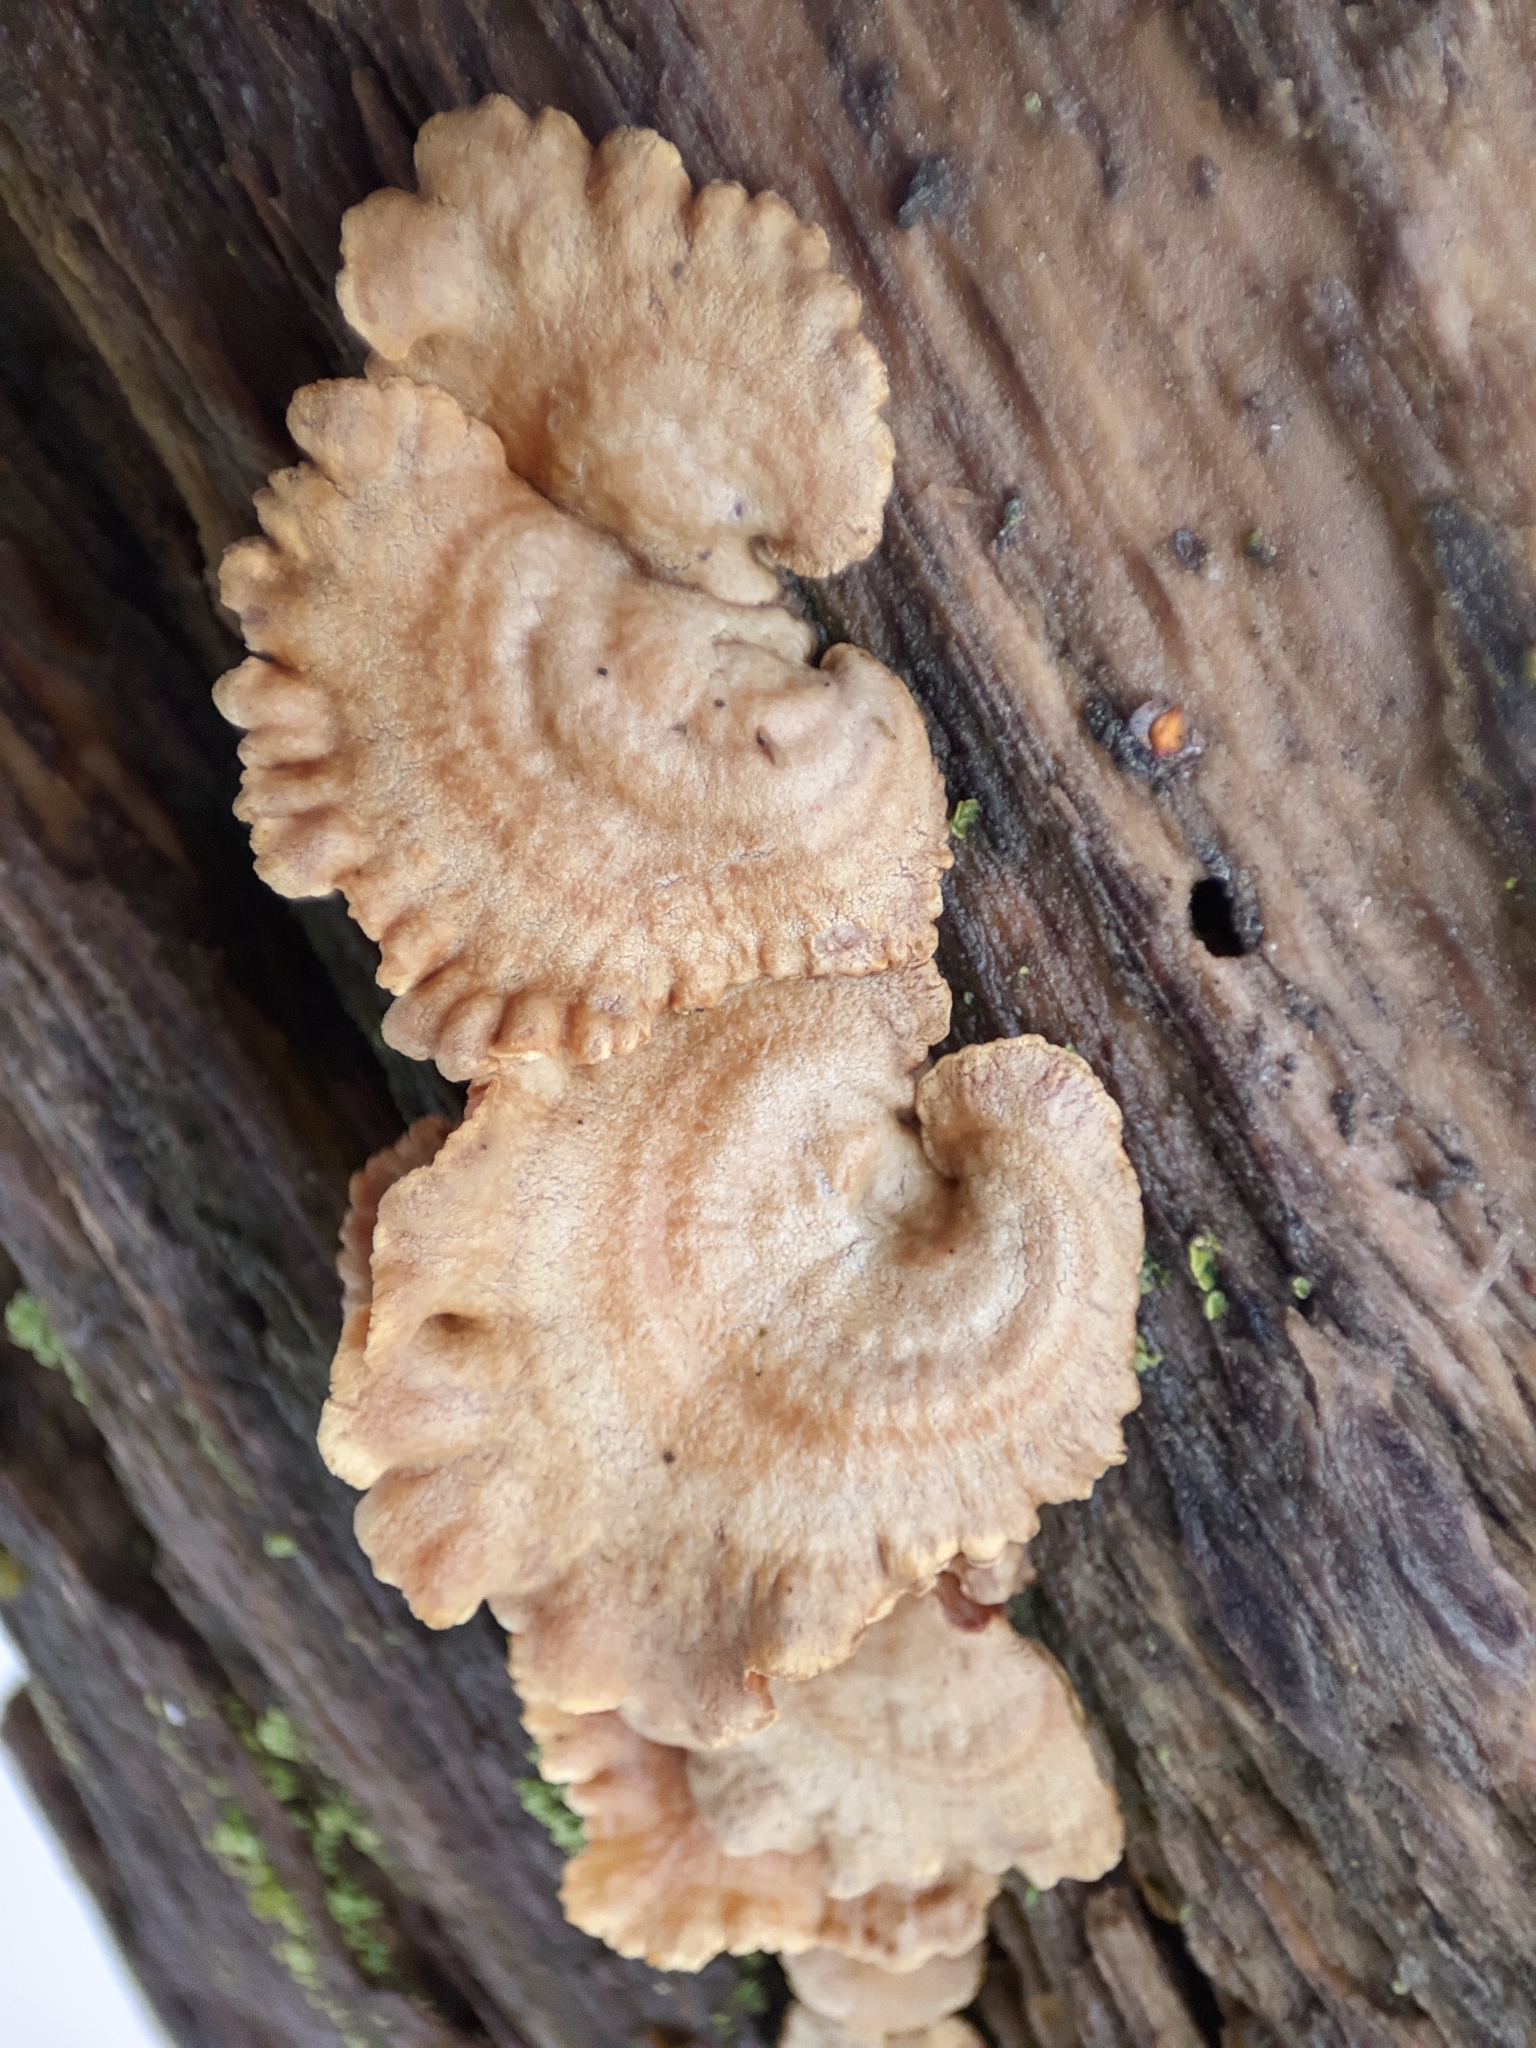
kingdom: Fungi
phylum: Basidiomycota
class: Agaricomycetes
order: Agaricales
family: Mycenaceae
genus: Panellus
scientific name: Panellus stipticus
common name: Bitter oysterling
